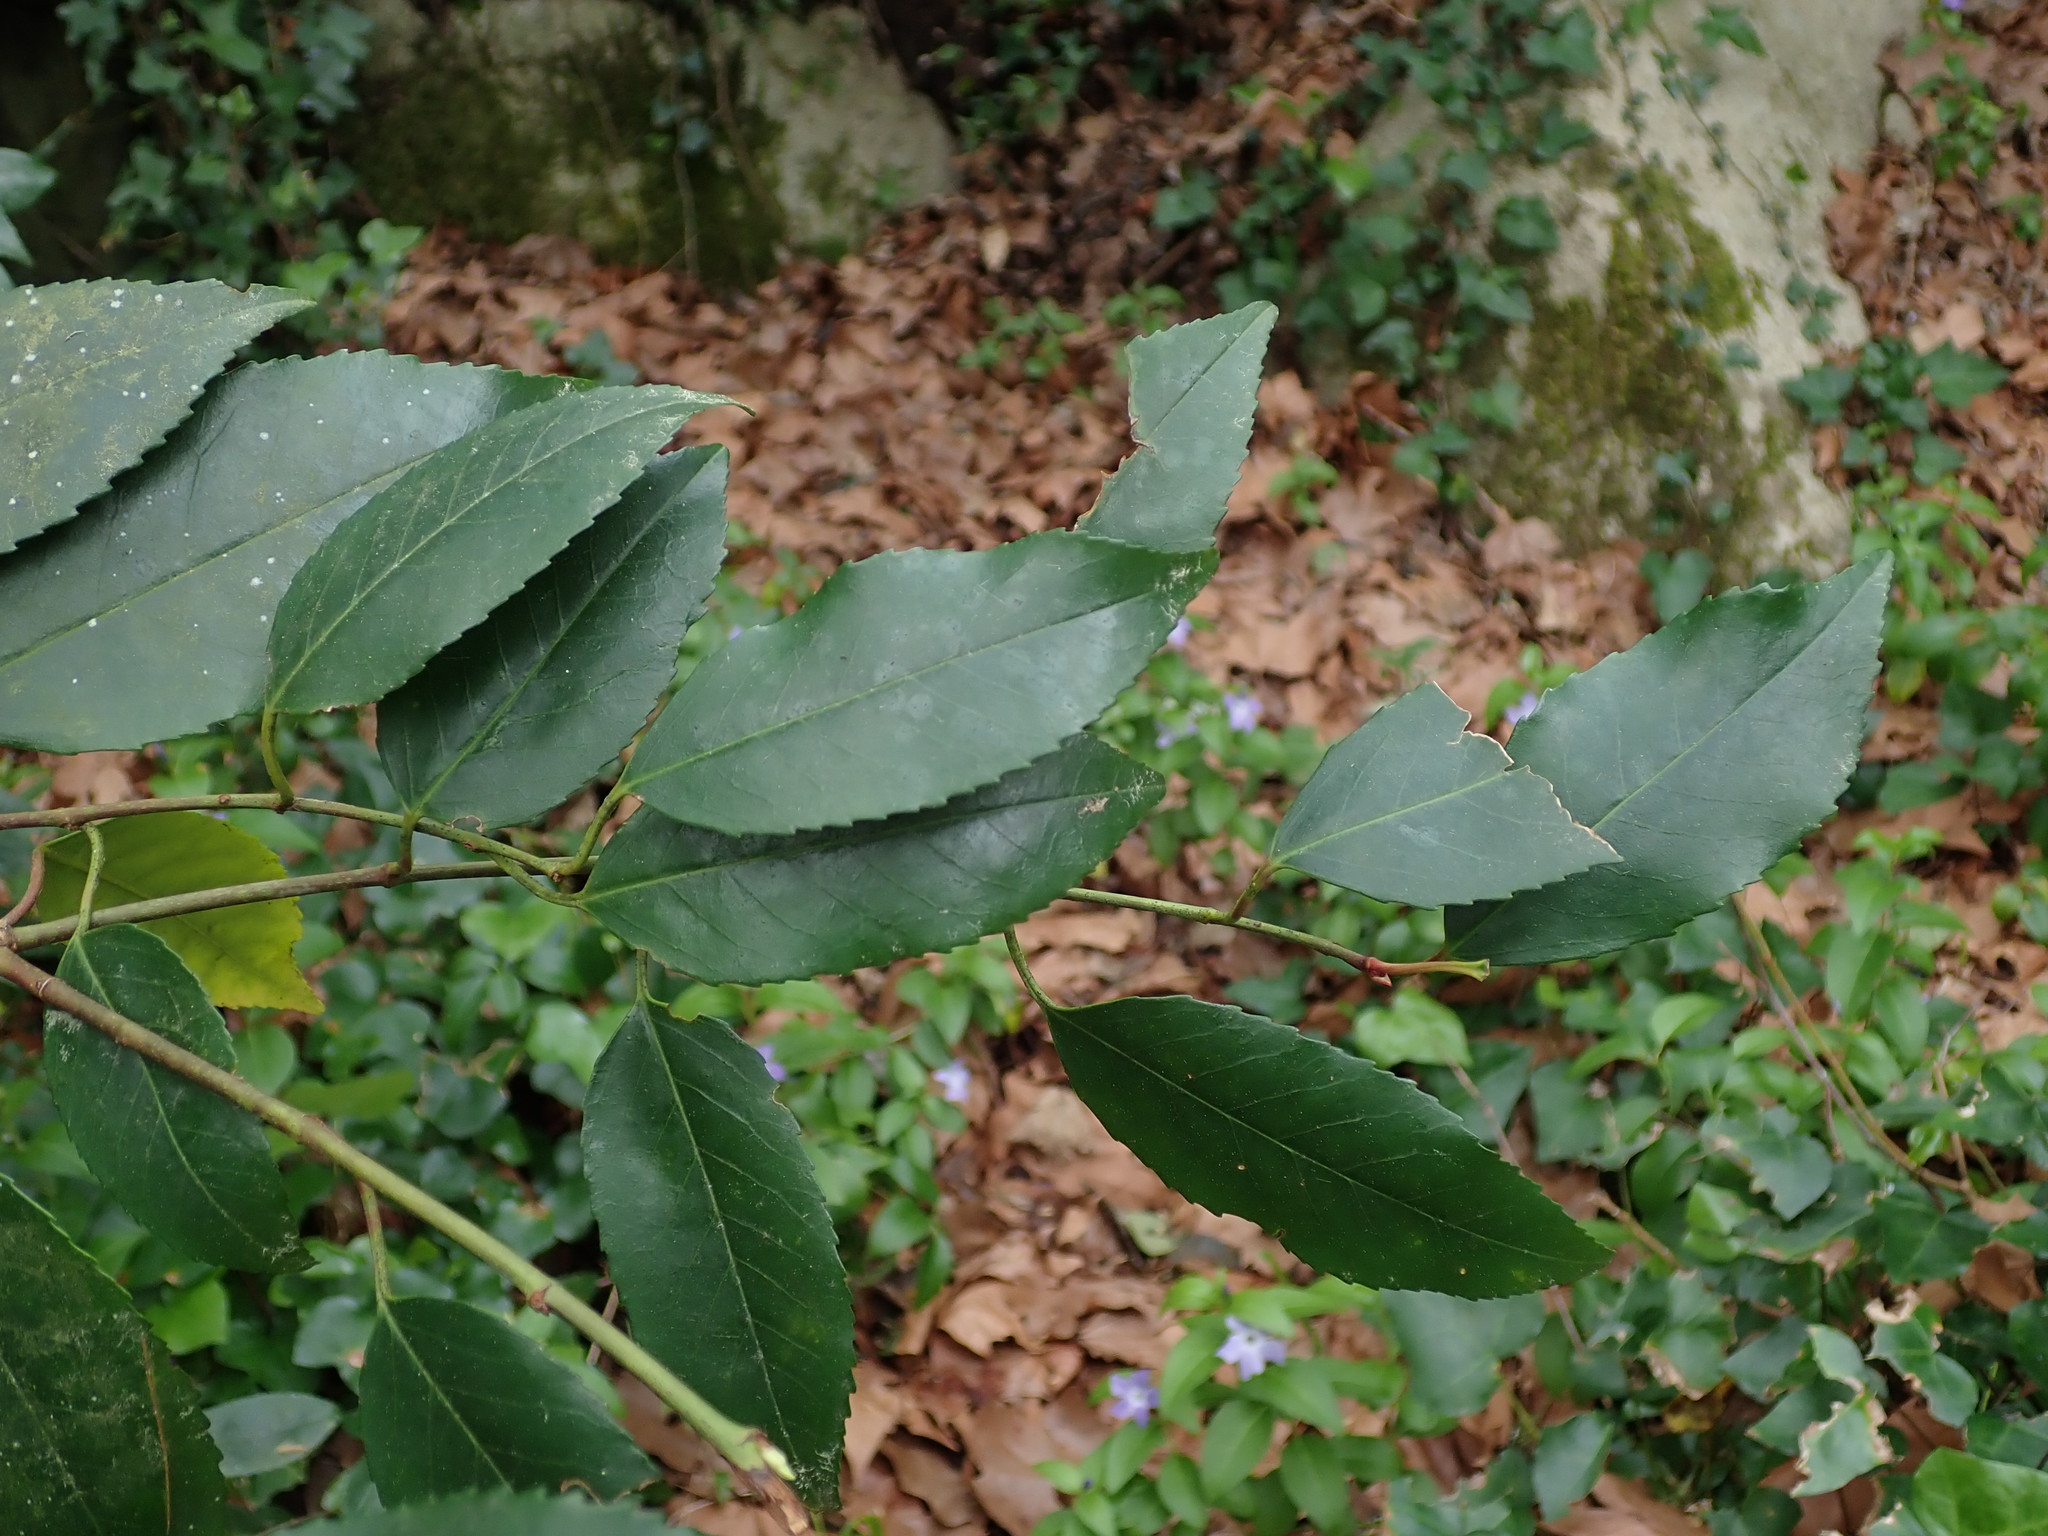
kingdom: Plantae
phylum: Tracheophyta
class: Magnoliopsida
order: Rosales
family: Rosaceae
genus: Prunus
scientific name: Prunus lusitanica
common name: Portugal laurel
